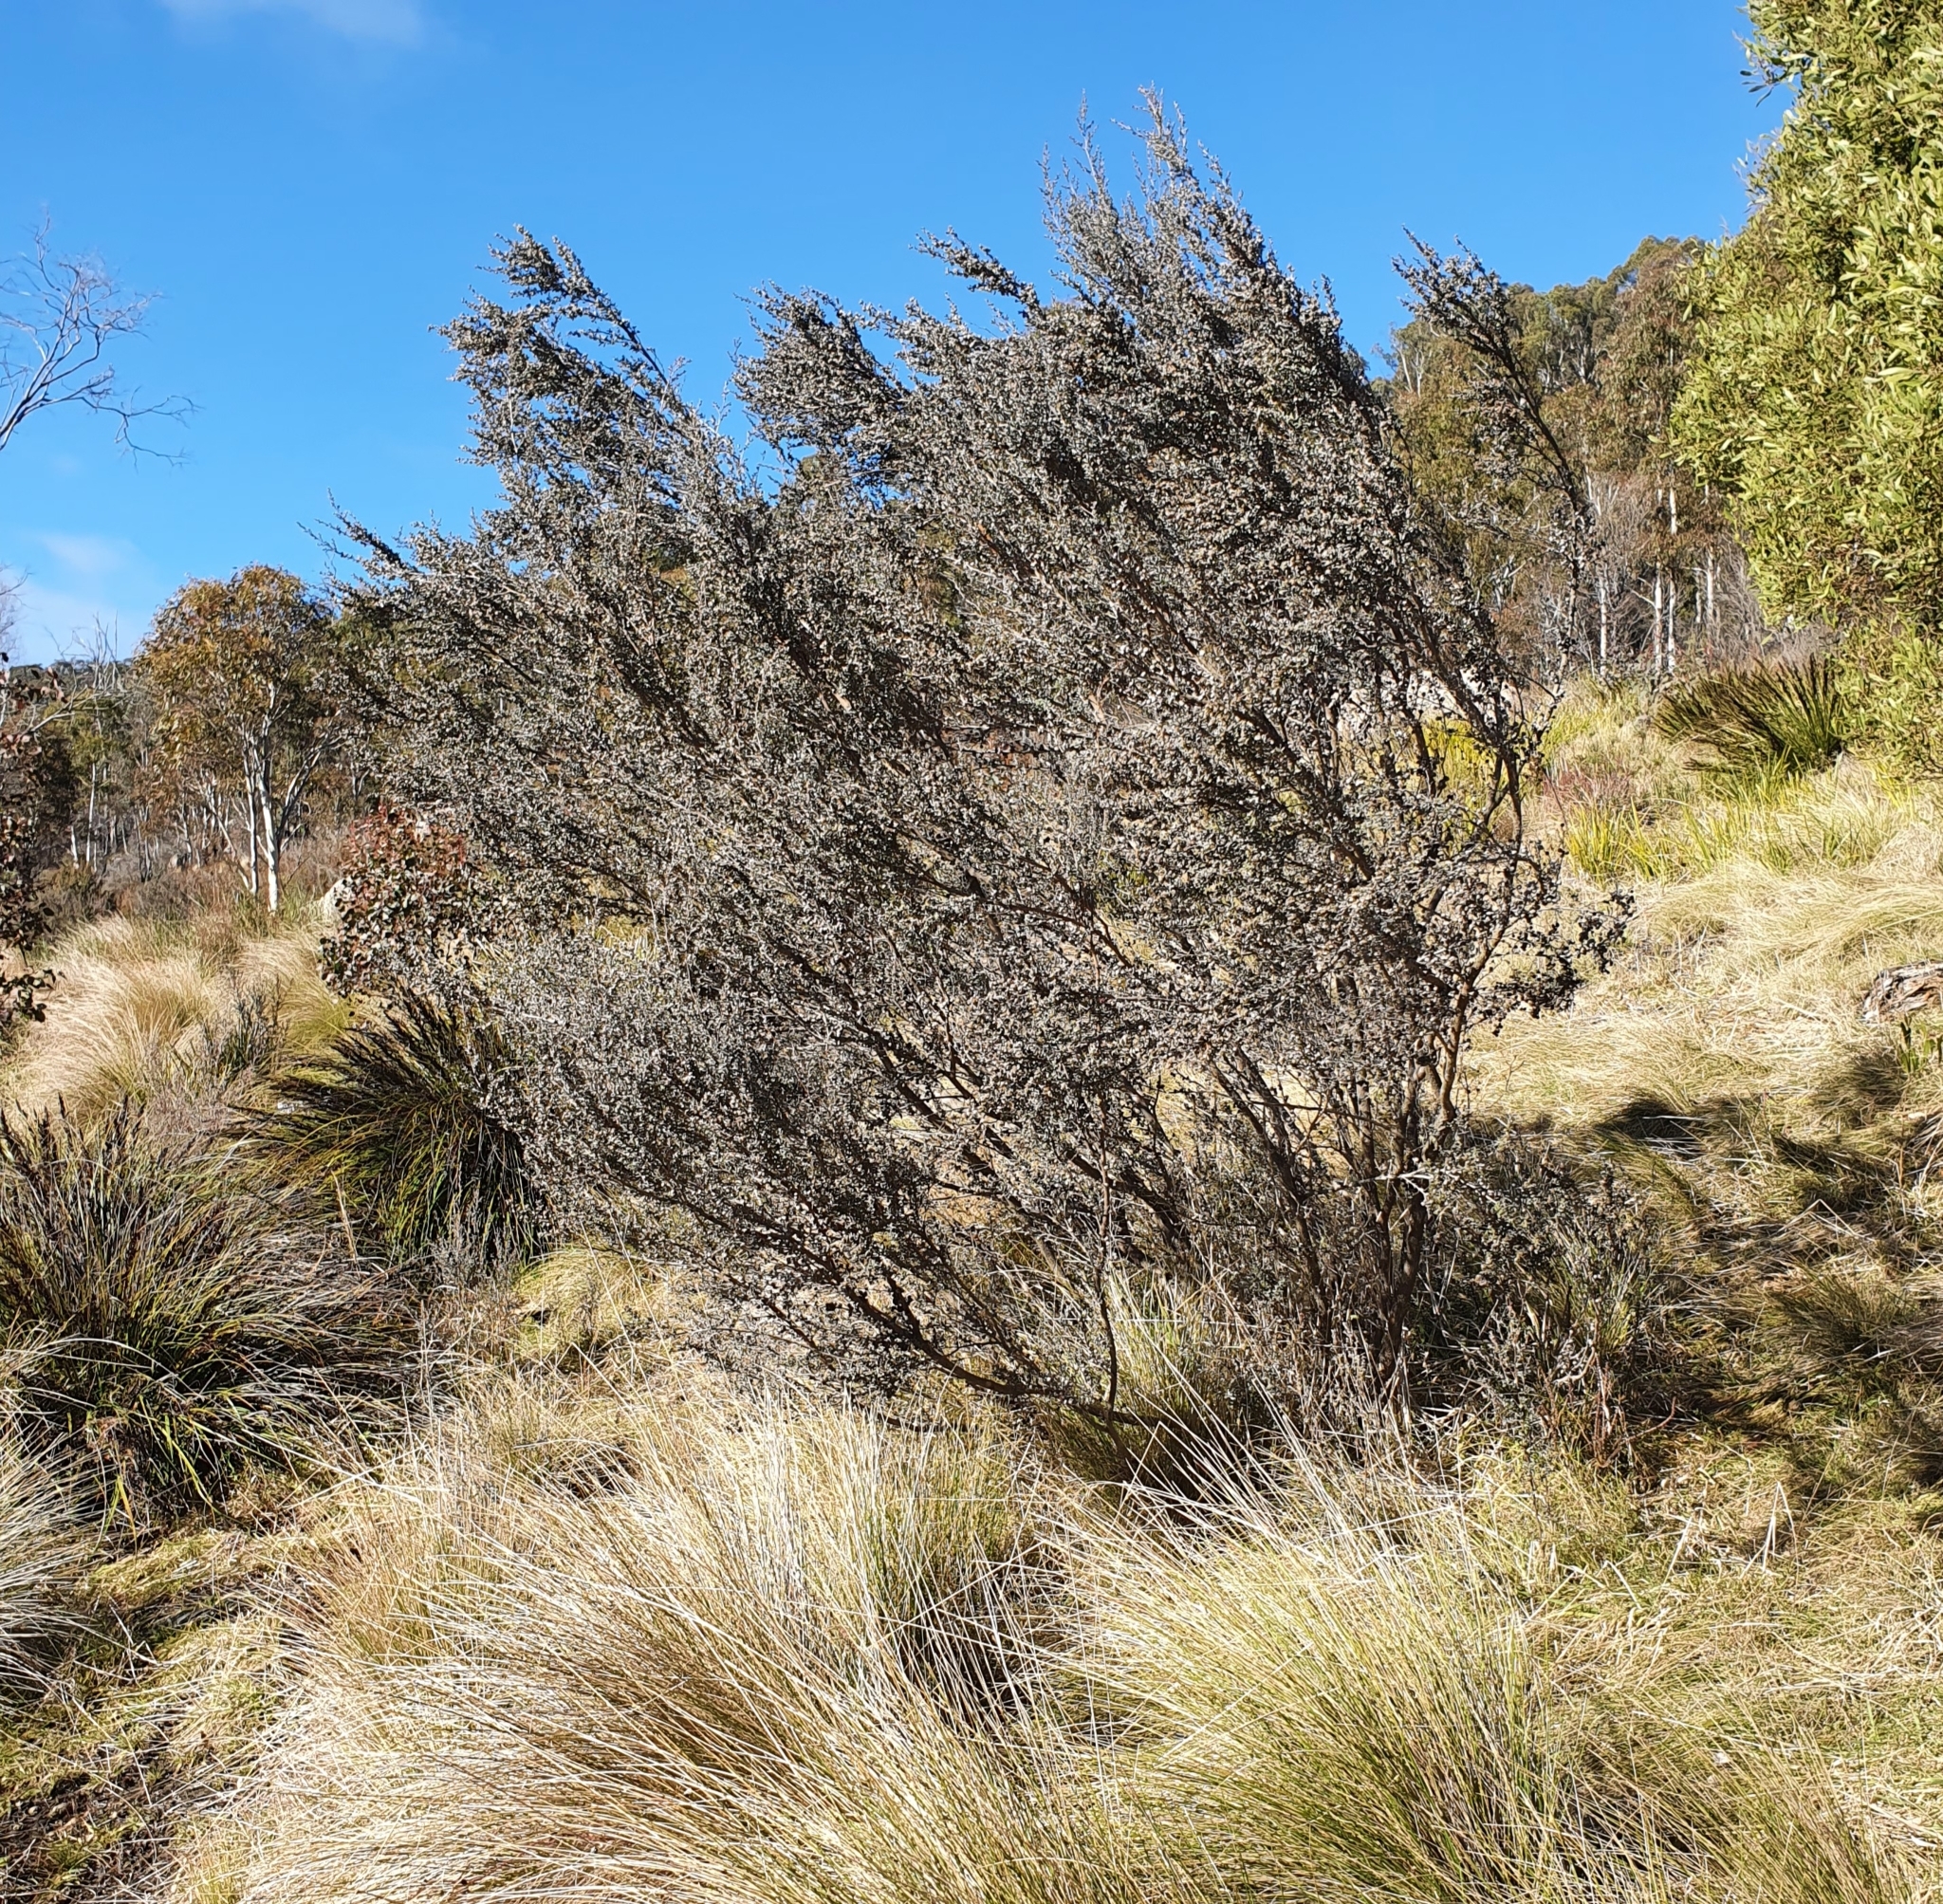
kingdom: Plantae
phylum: Tracheophyta
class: Magnoliopsida
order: Myrtales
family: Myrtaceae
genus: Leptospermum
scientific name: Leptospermum myrtifolium
